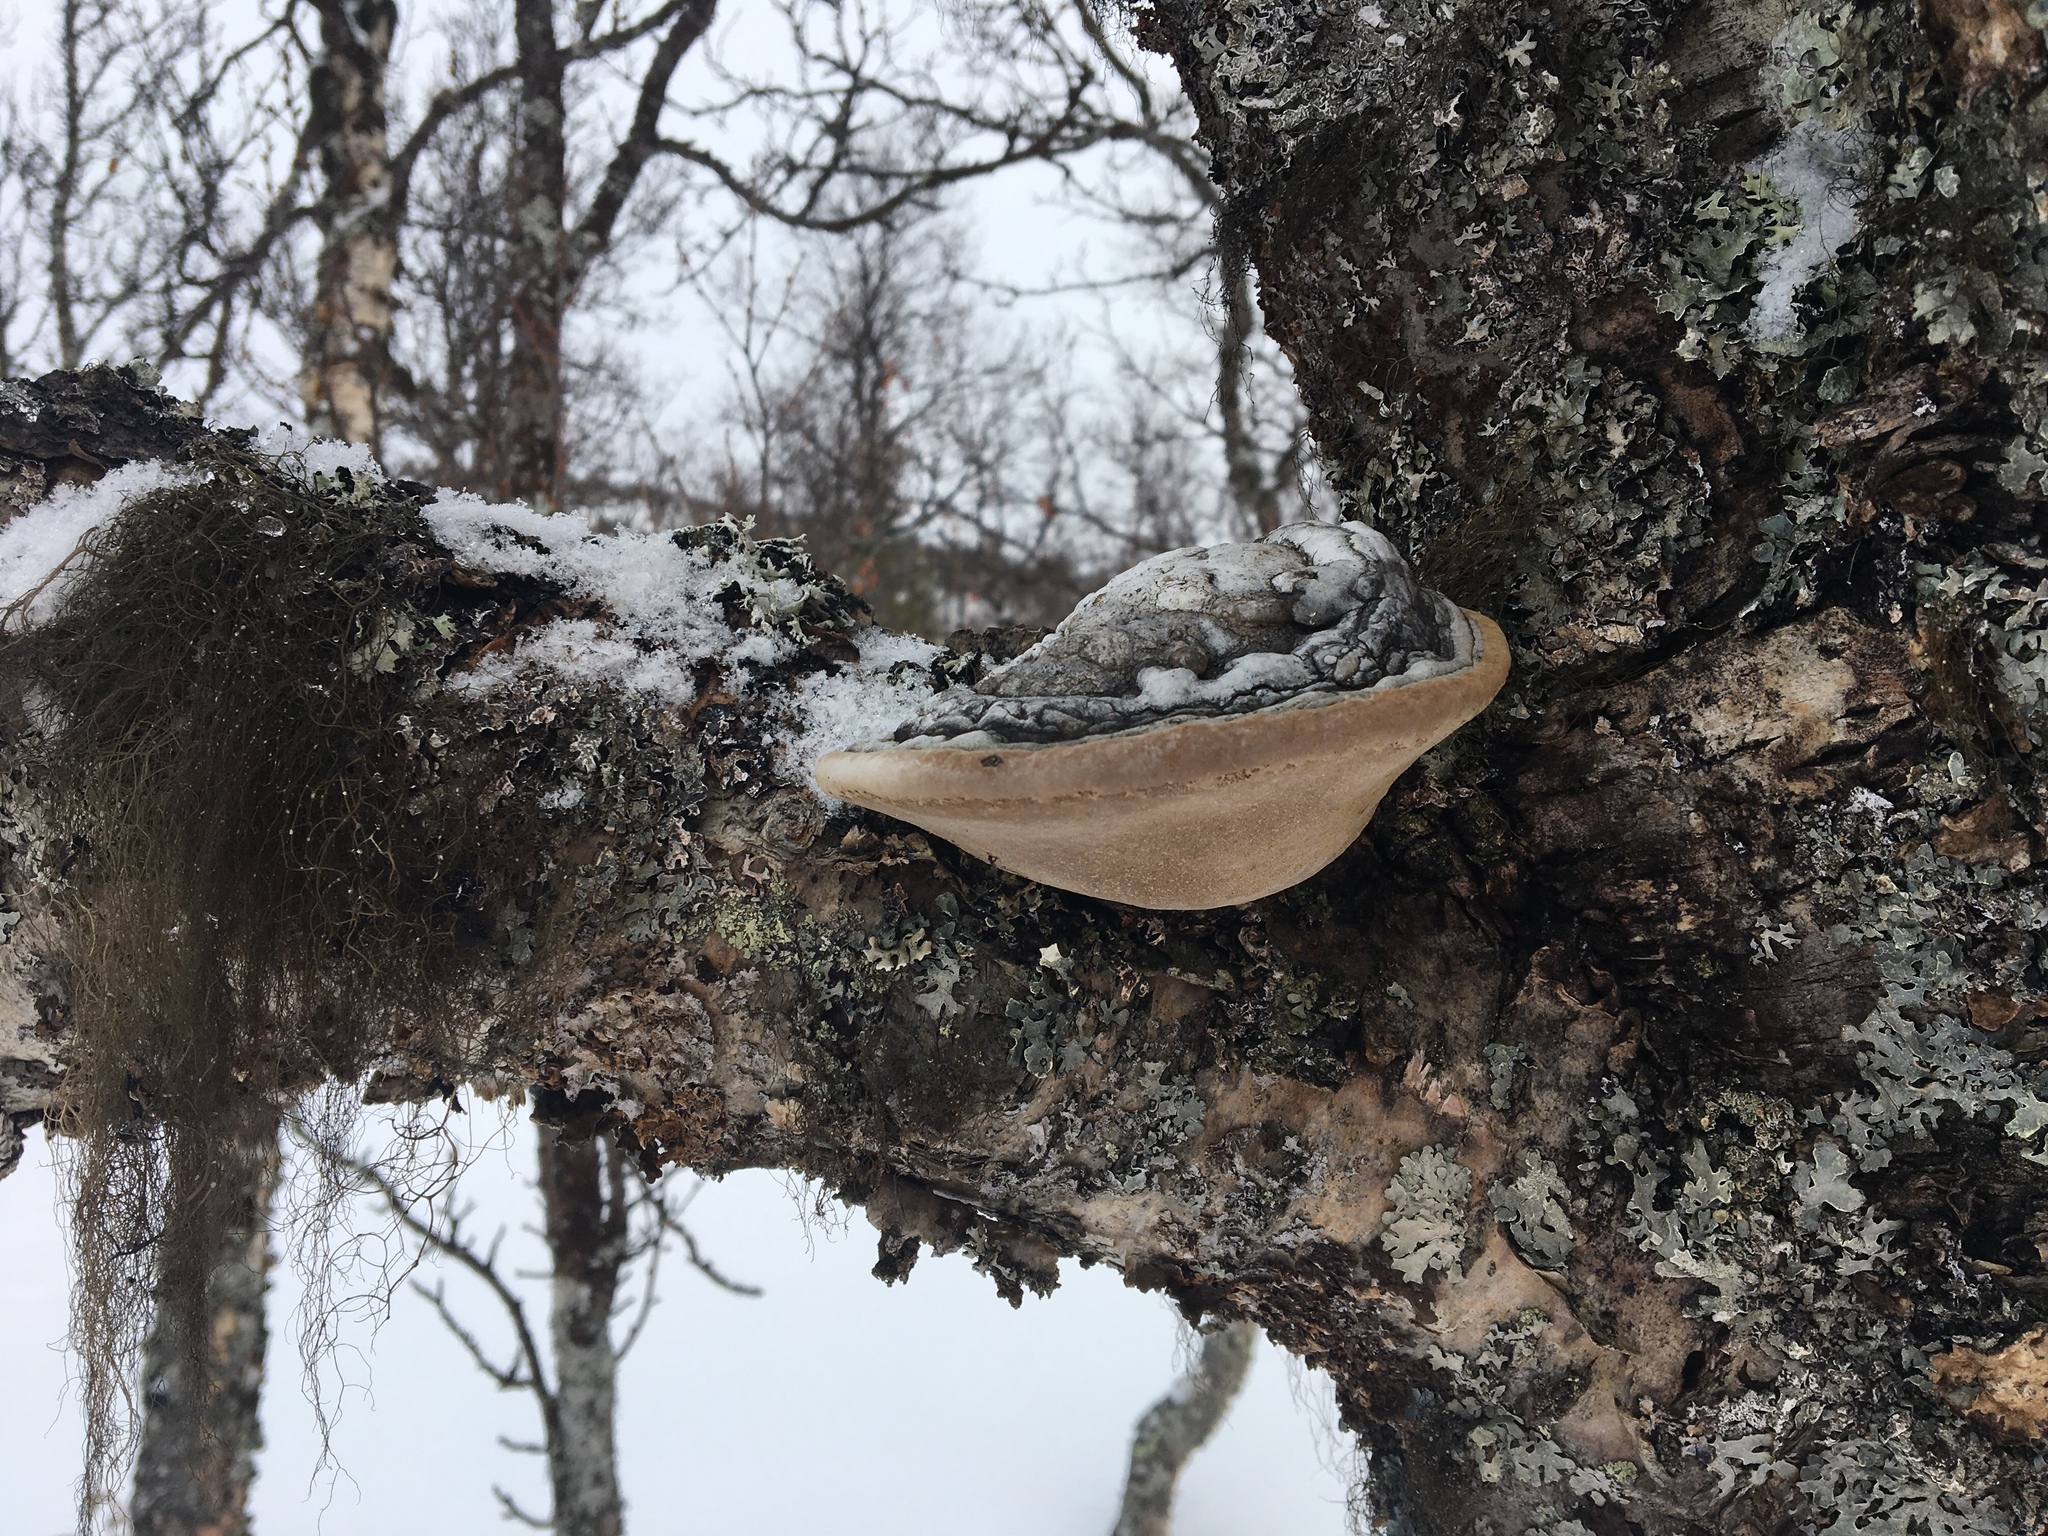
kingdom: Fungi
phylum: Basidiomycota
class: Agaricomycetes
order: Hymenochaetales
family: Hymenochaetaceae
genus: Phellinus
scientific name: Phellinus cinereus
